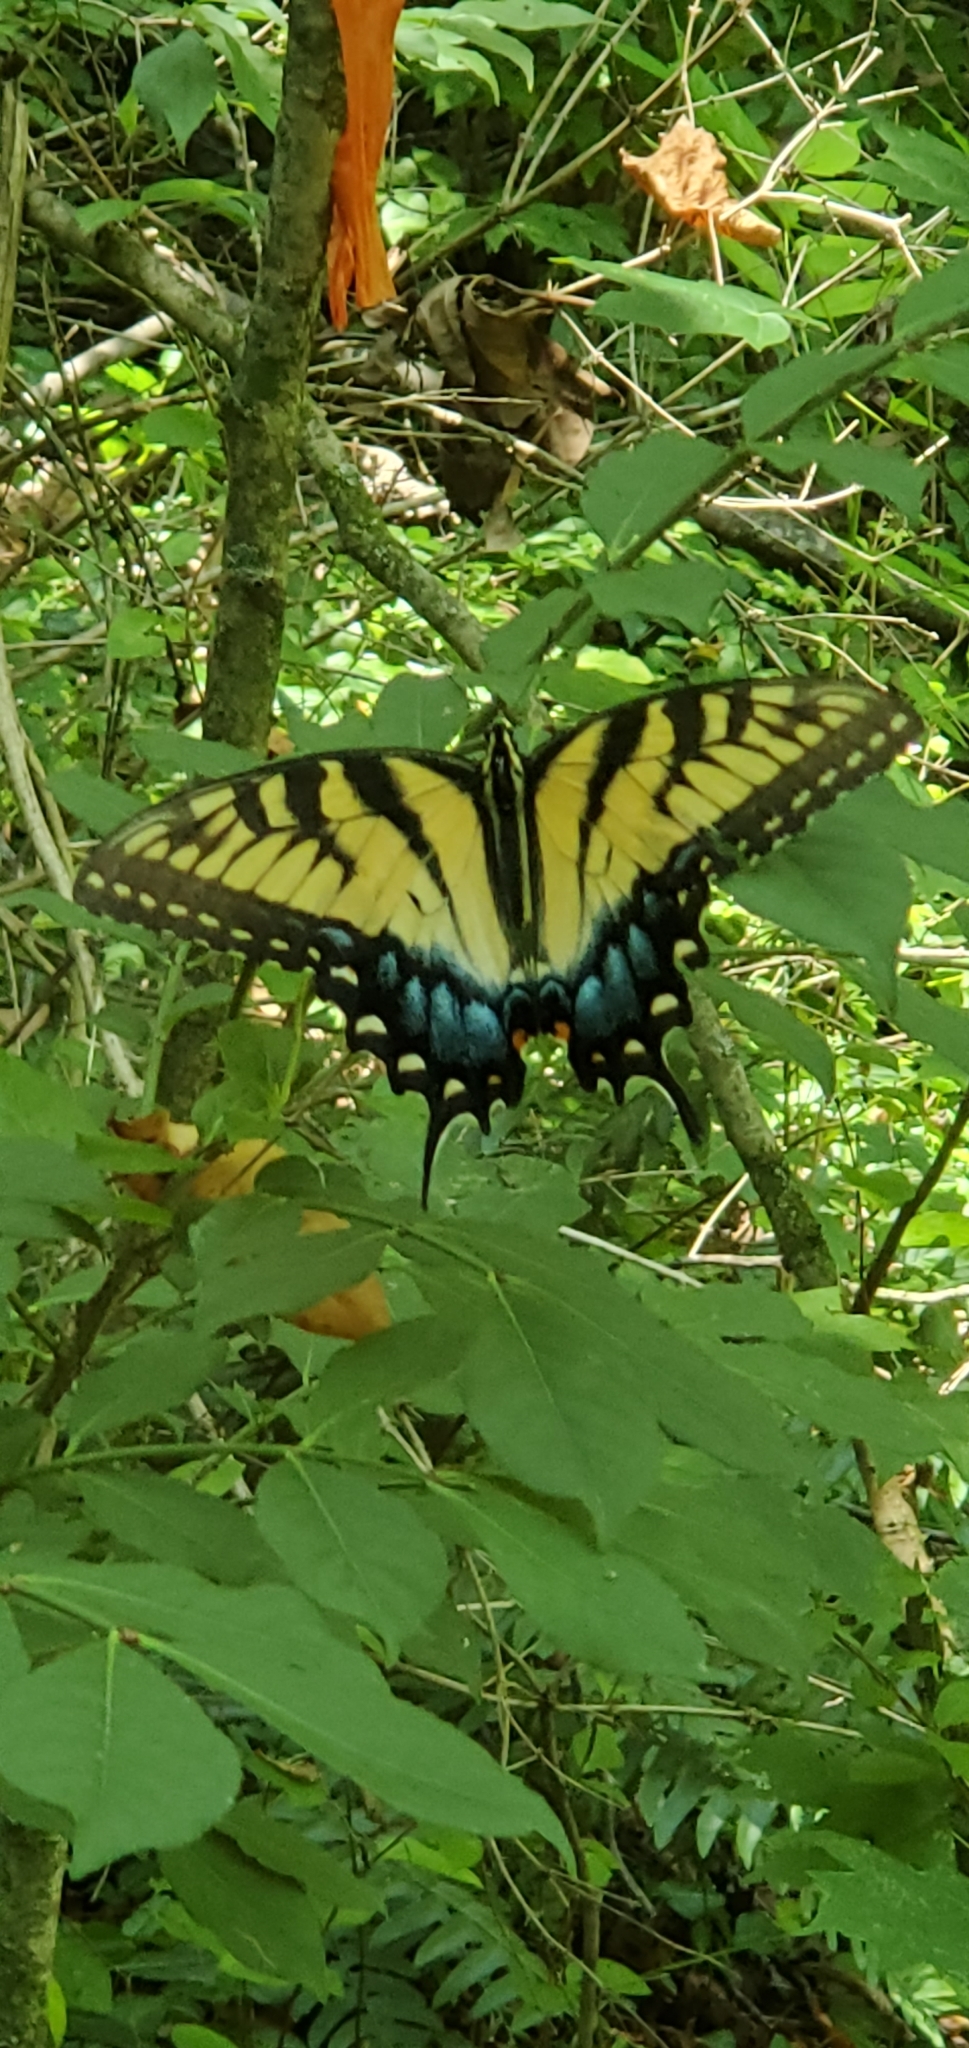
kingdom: Animalia
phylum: Arthropoda
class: Insecta
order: Lepidoptera
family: Papilionidae
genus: Papilio
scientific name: Papilio glaucus
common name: Tiger swallowtail
